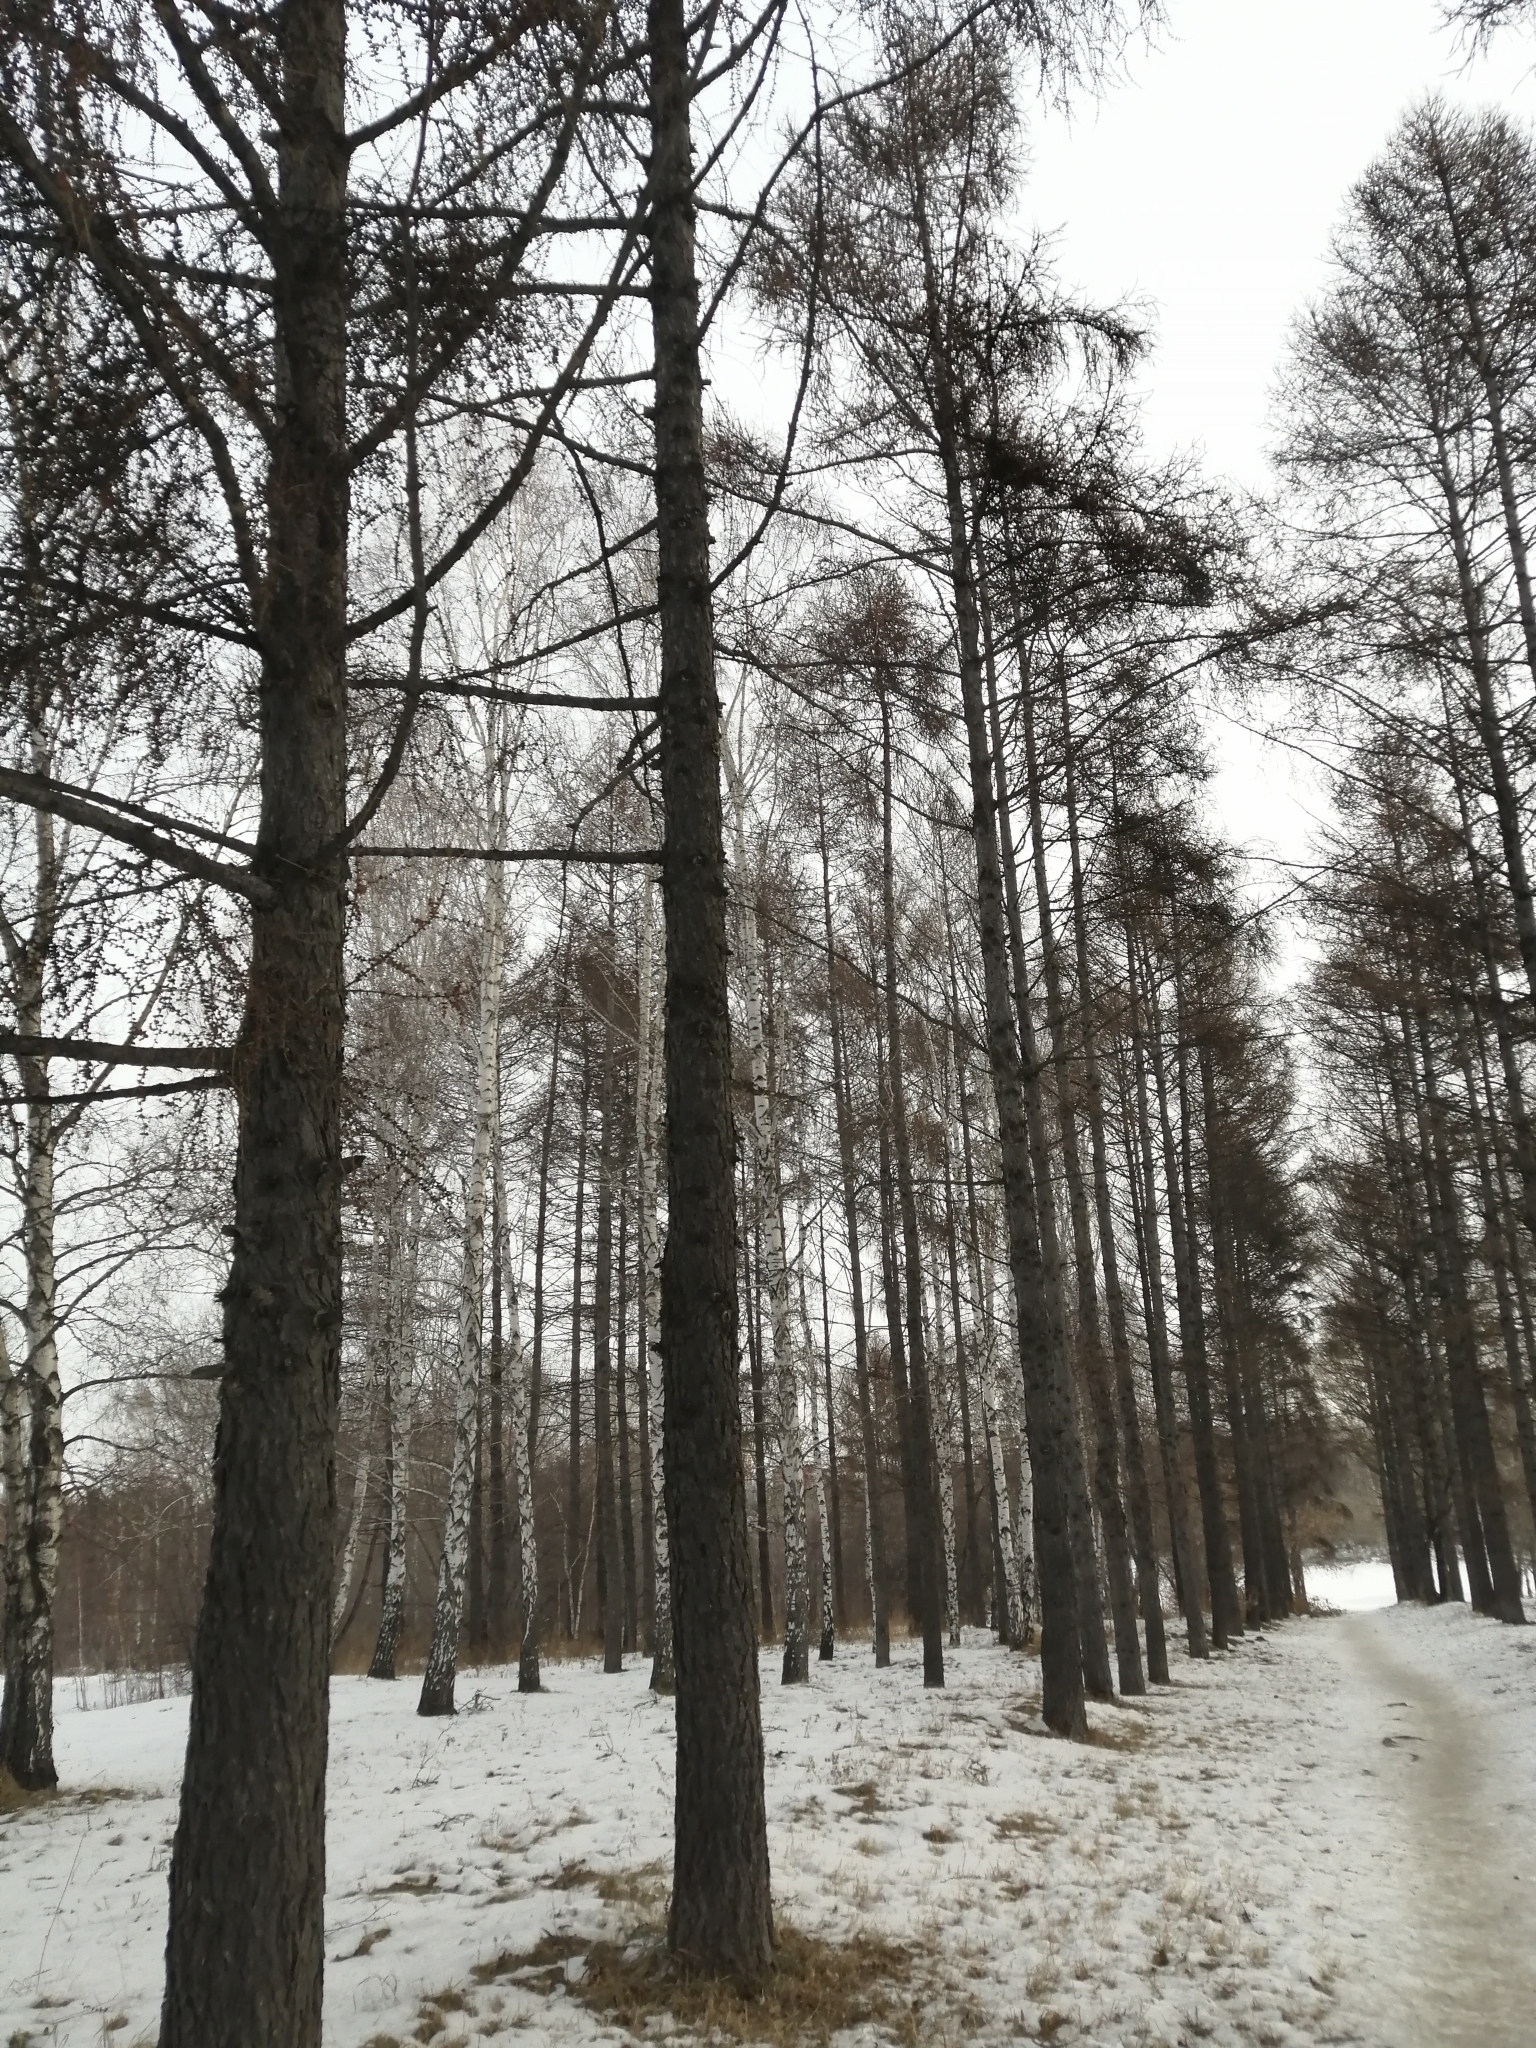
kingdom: Plantae
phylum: Tracheophyta
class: Pinopsida
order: Pinales
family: Pinaceae
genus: Larix
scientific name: Larix sibirica
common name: Siberian larch
